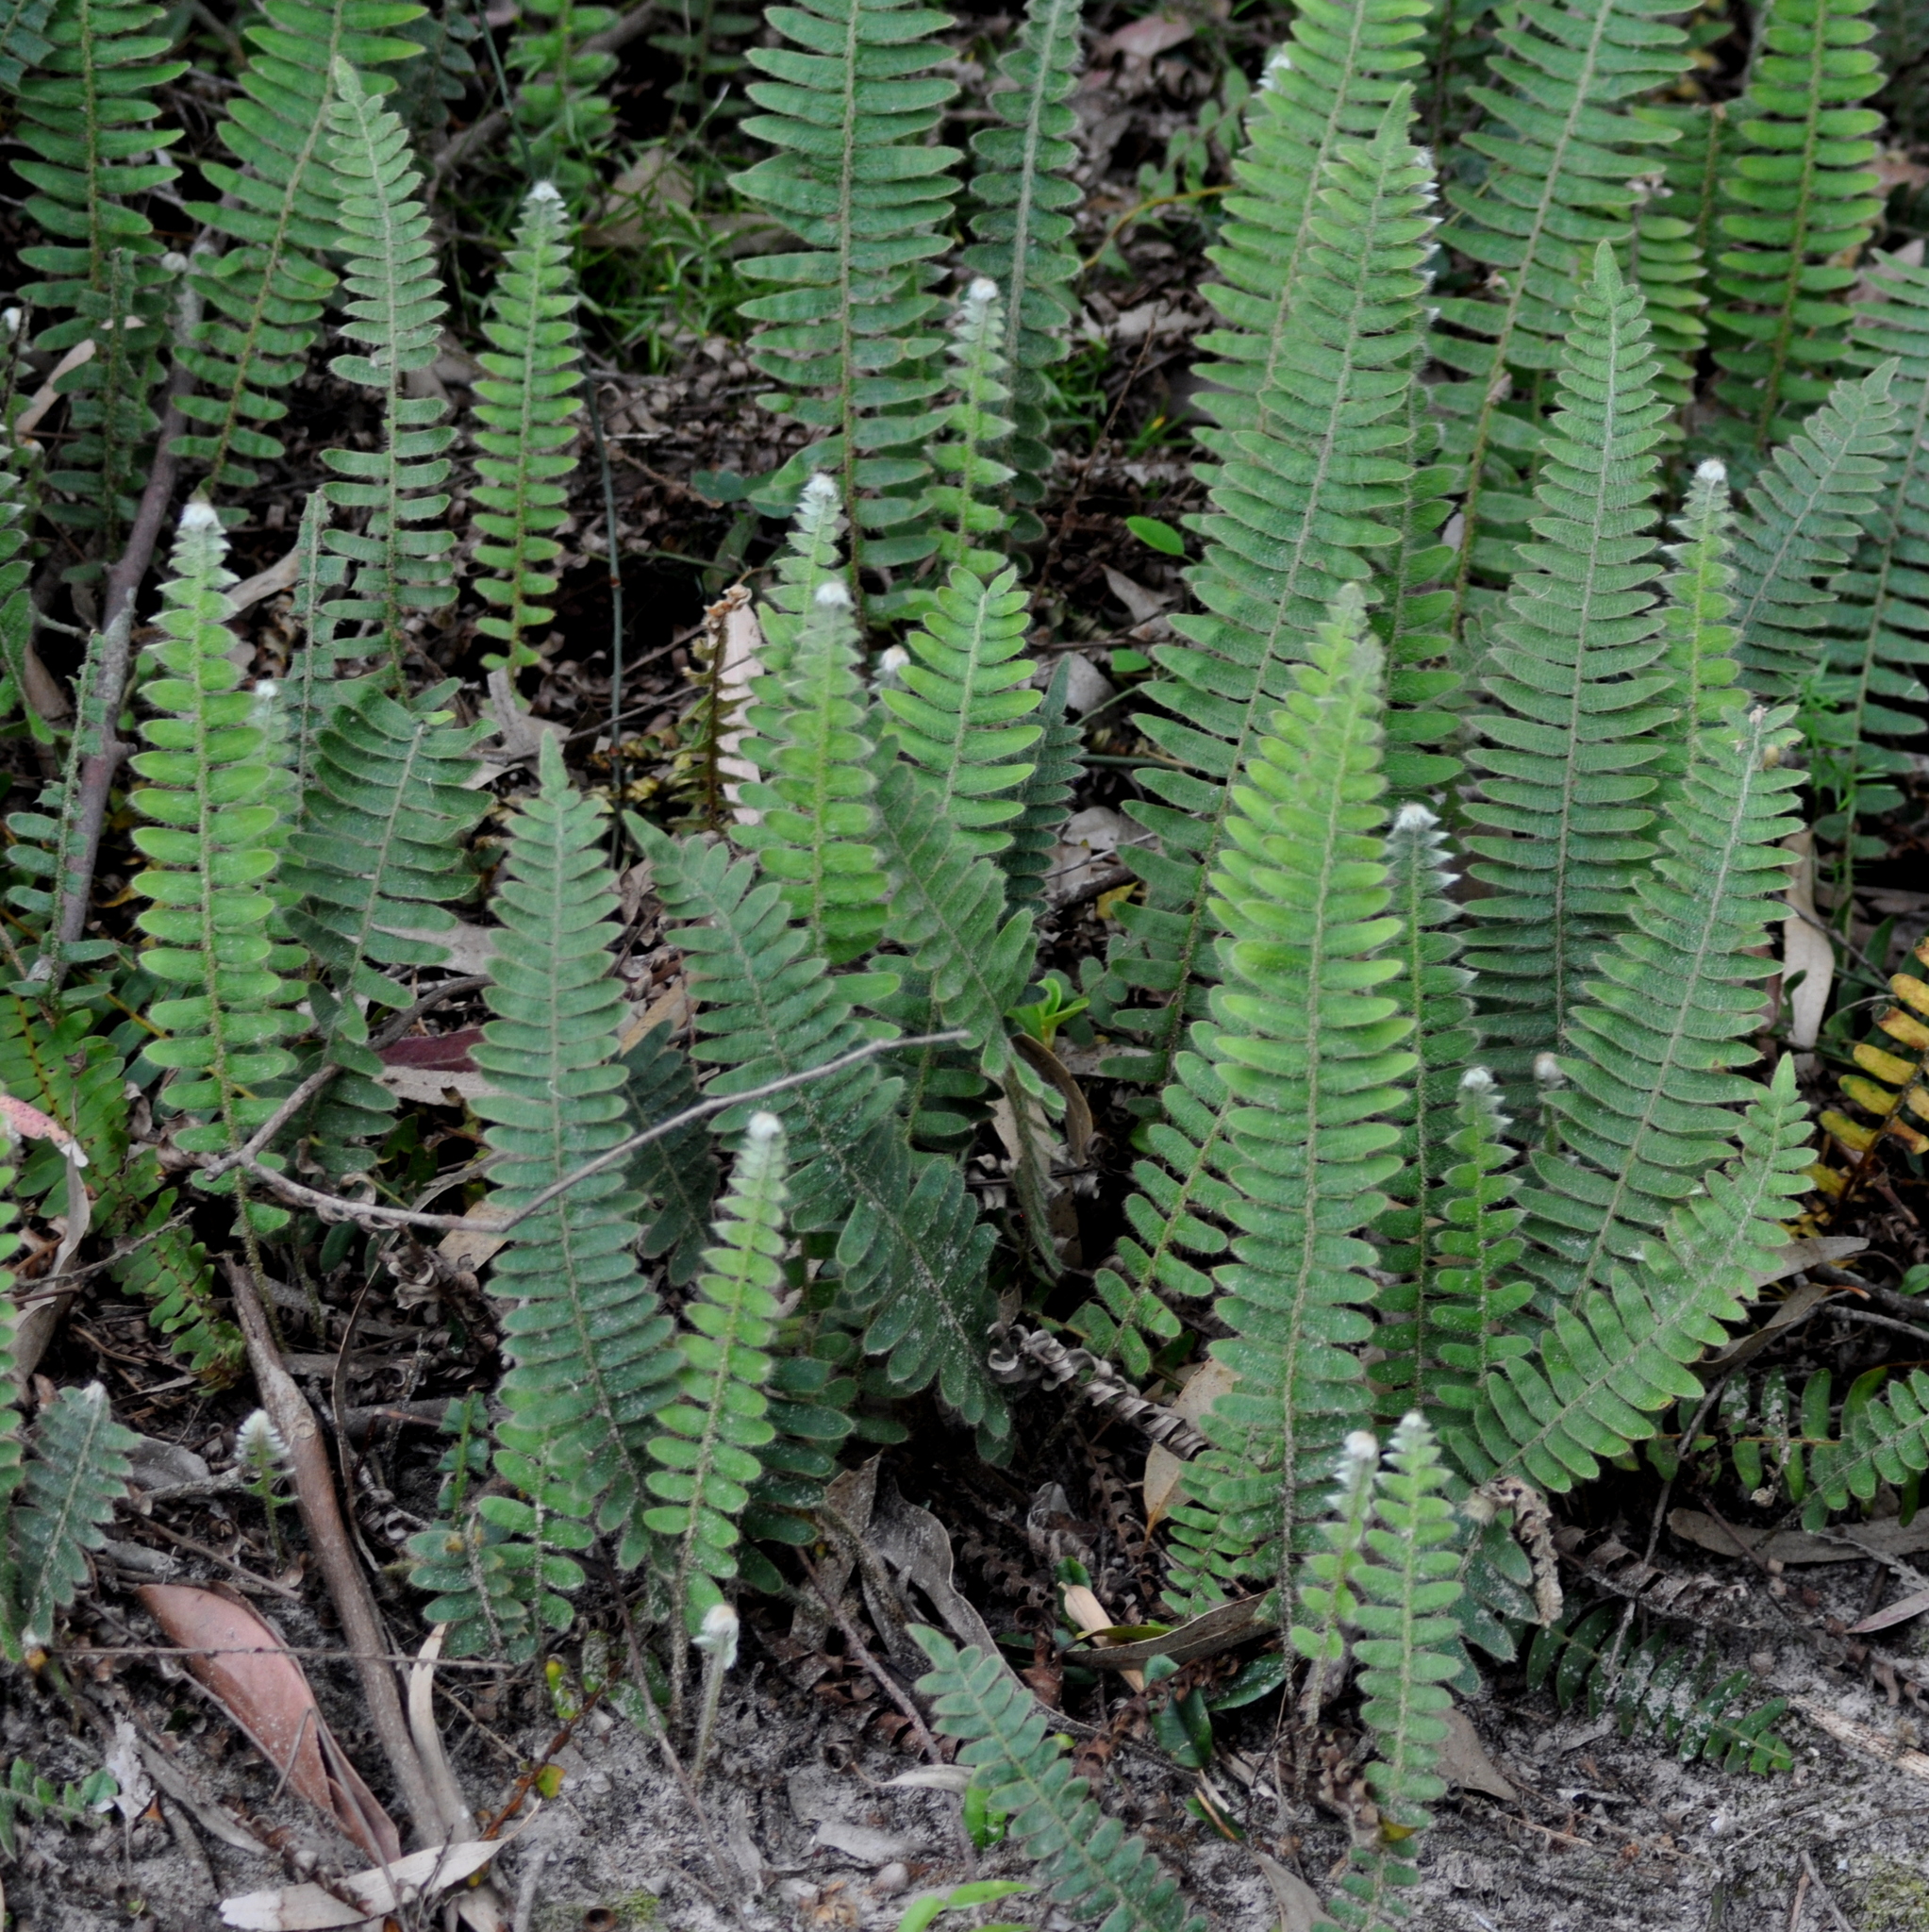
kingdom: Plantae
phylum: Tracheophyta
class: Polypodiopsida
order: Polypodiales
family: Polypodiaceae
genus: Pleopeltis
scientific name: Pleopeltis lepidopteris
